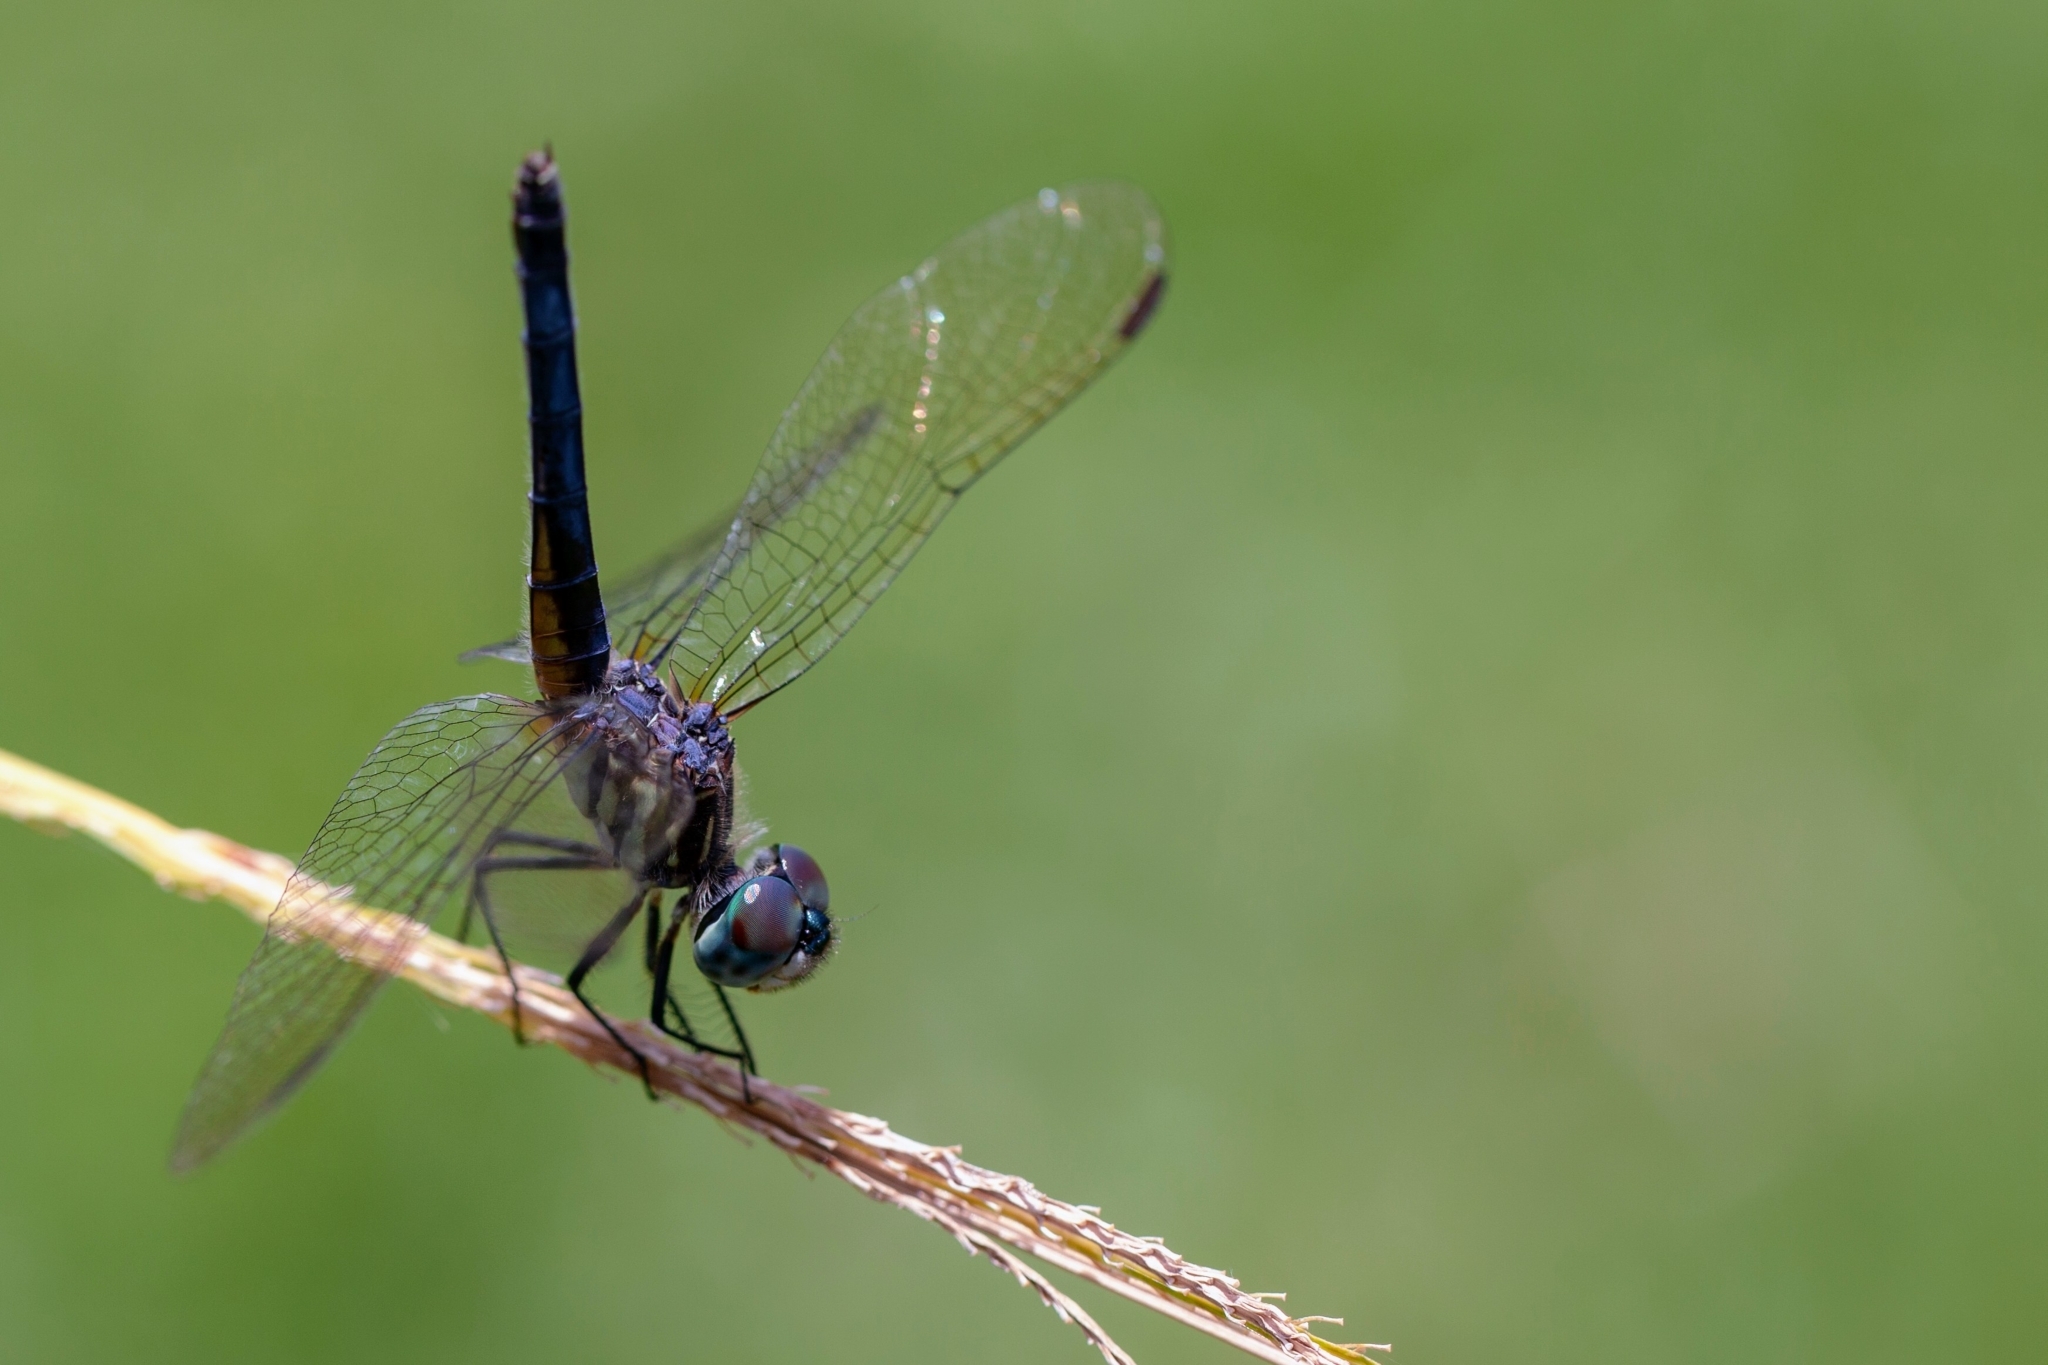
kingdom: Animalia
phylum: Arthropoda
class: Insecta
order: Odonata
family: Libellulidae
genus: Pachydiplax
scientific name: Pachydiplax longipennis
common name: Blue dasher
